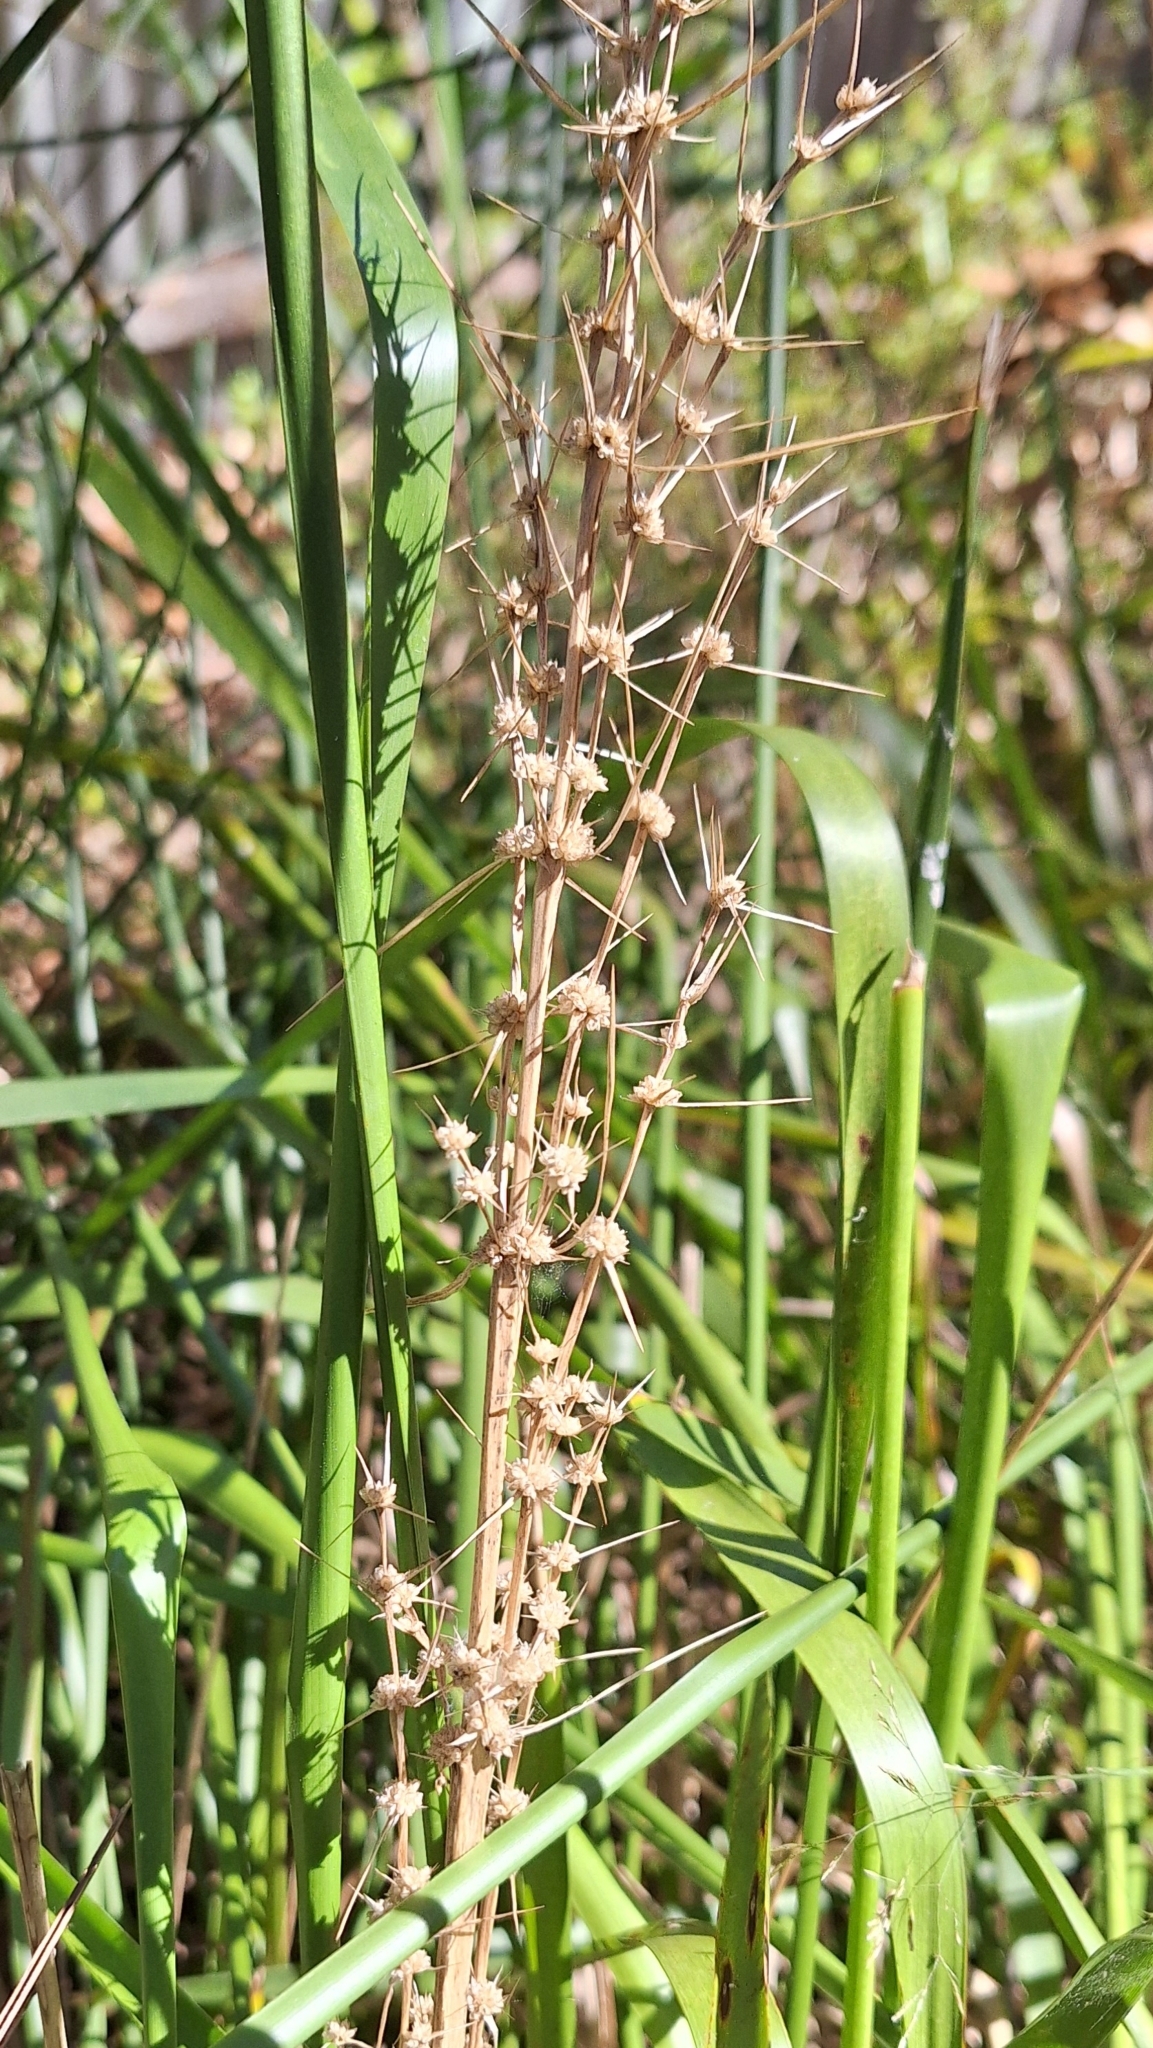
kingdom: Plantae
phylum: Tracheophyta
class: Liliopsida
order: Asparagales
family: Asparagaceae
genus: Lomandra
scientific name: Lomandra longifolia
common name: Longleaf mat-rush
